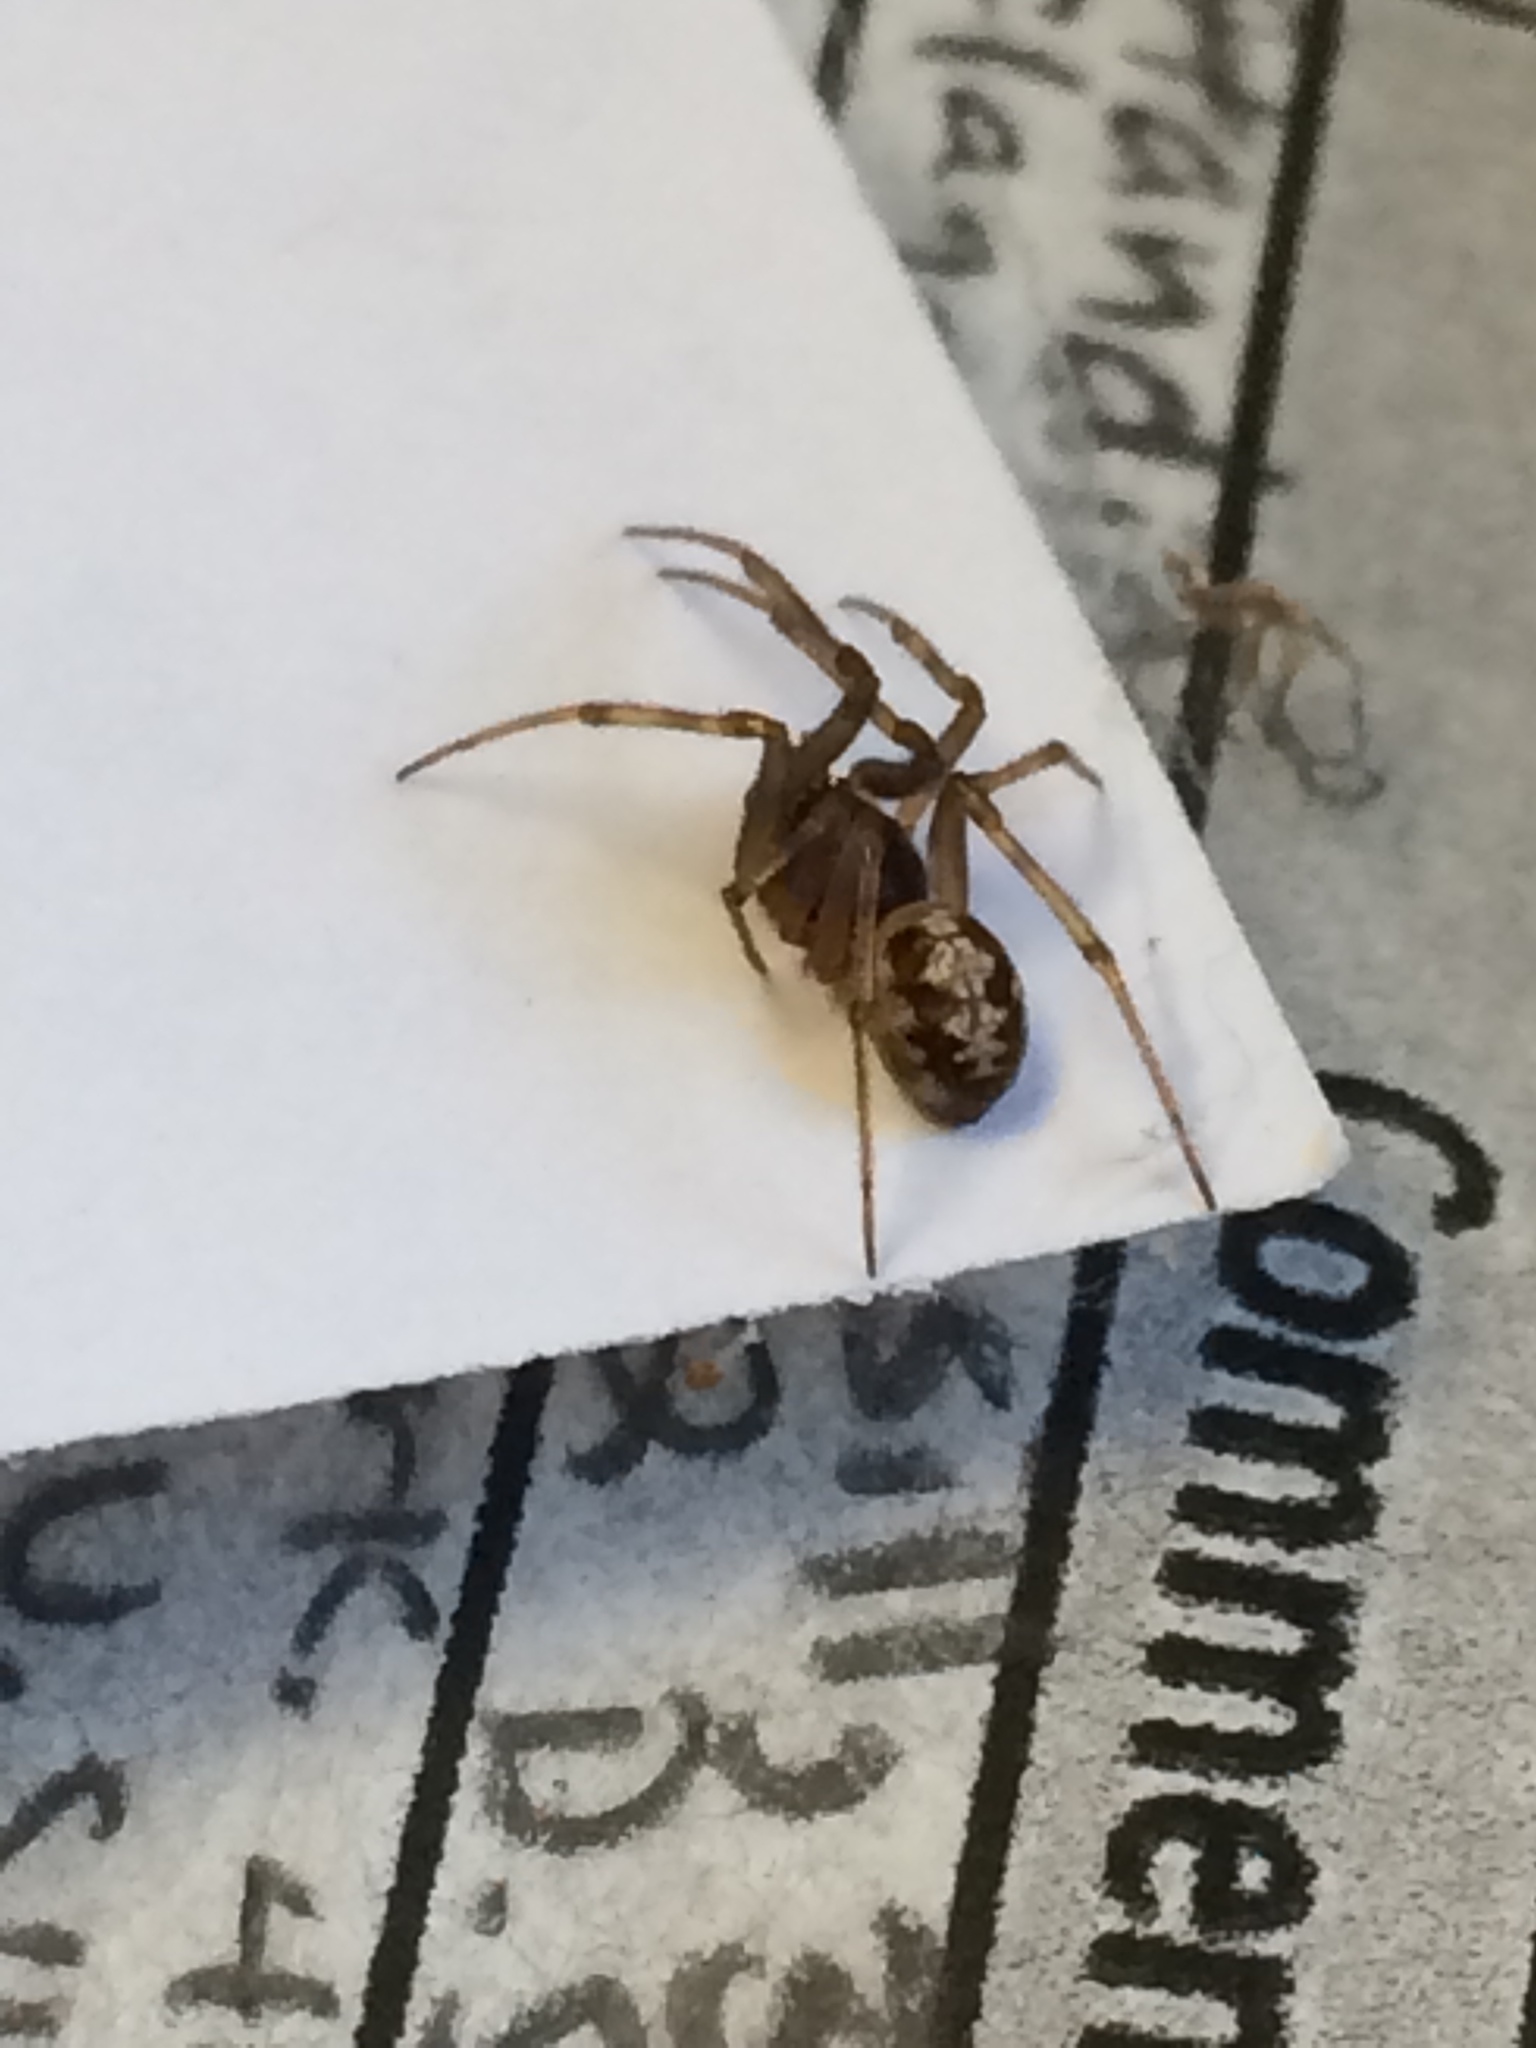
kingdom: Animalia
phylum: Arthropoda
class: Arachnida
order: Araneae
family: Theridiidae
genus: Steatoda
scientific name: Steatoda triangulosa
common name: Triangulate bud spider
